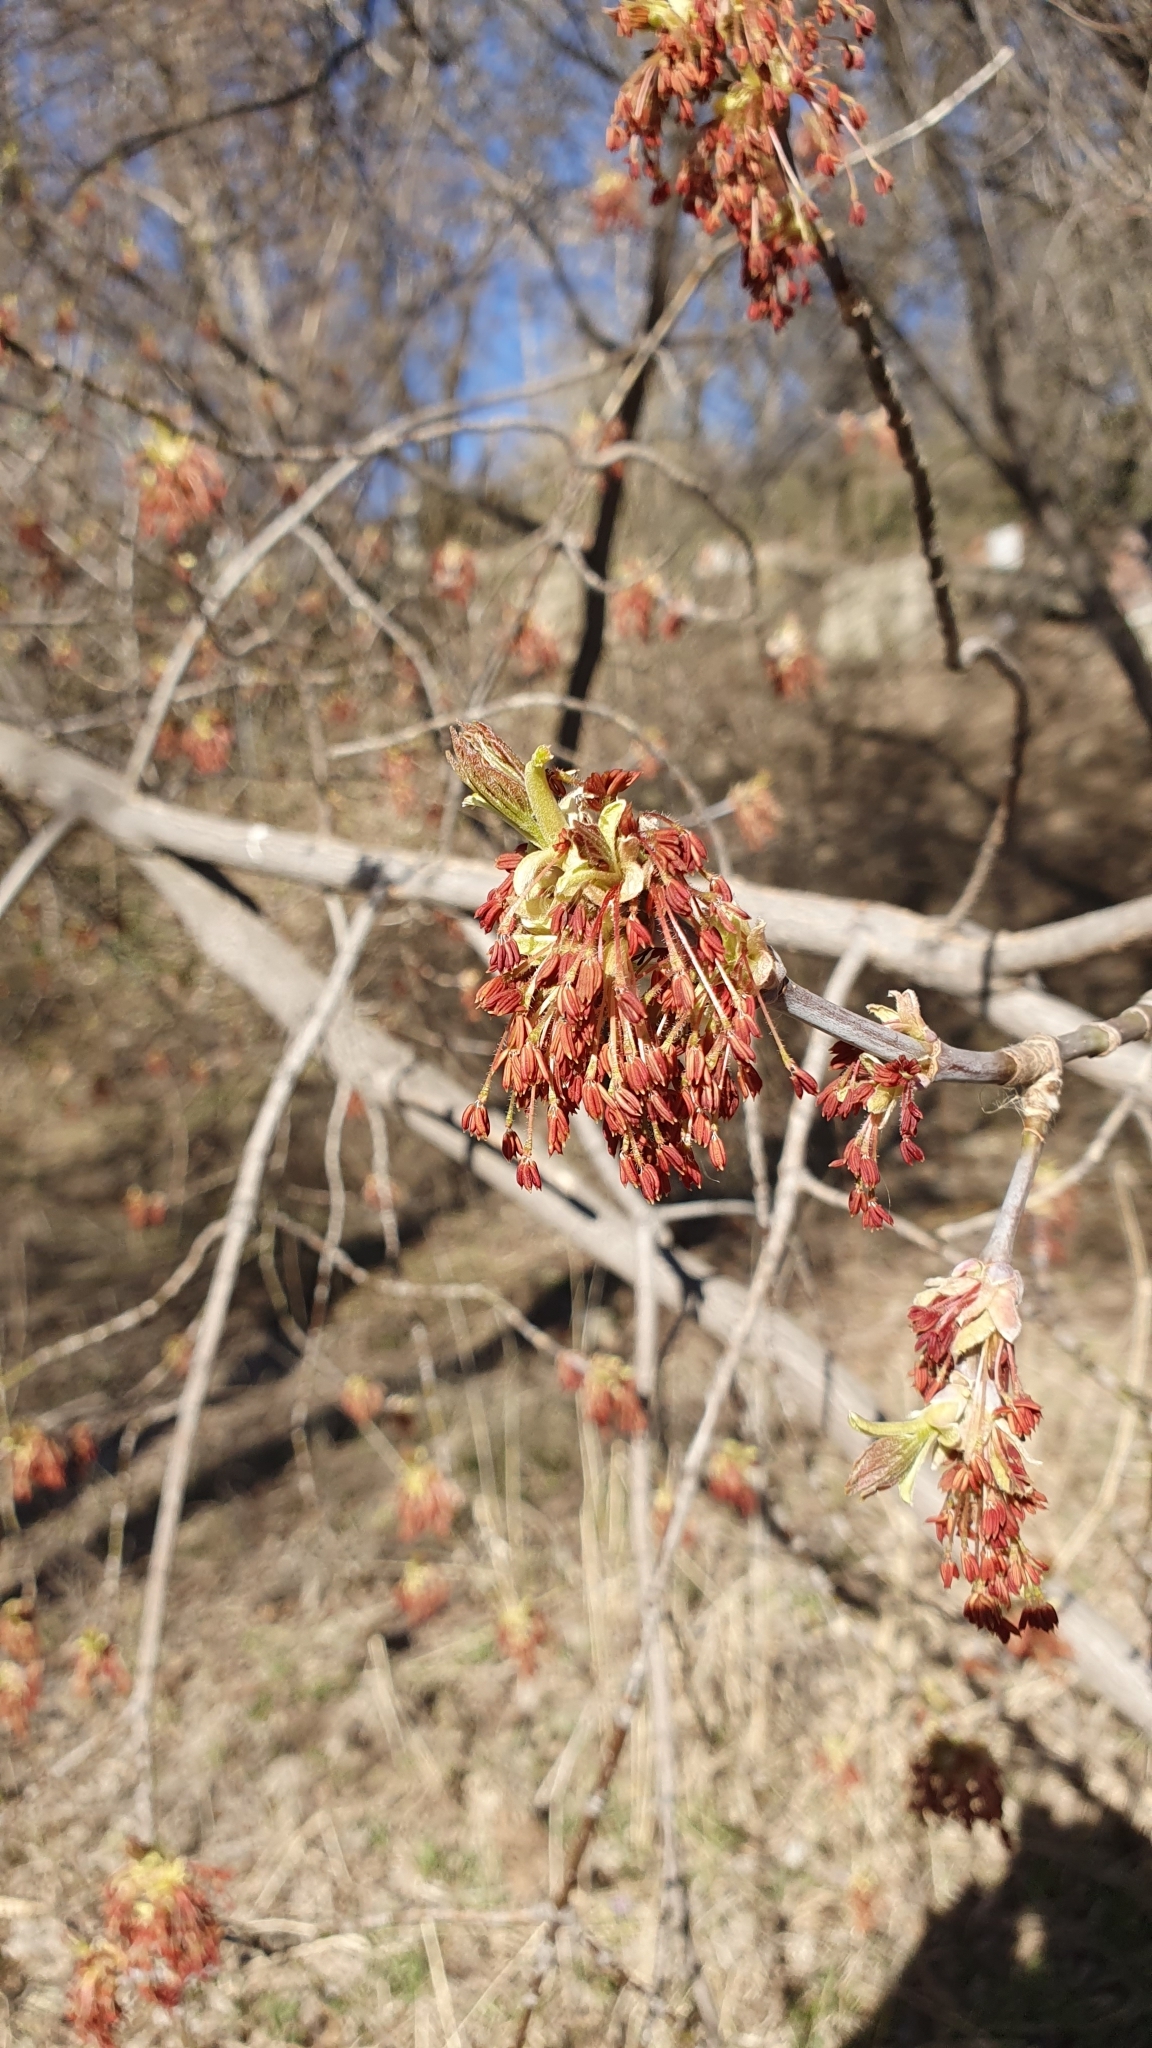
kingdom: Plantae
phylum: Tracheophyta
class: Magnoliopsida
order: Sapindales
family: Sapindaceae
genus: Acer
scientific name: Acer negundo
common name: Ashleaf maple
